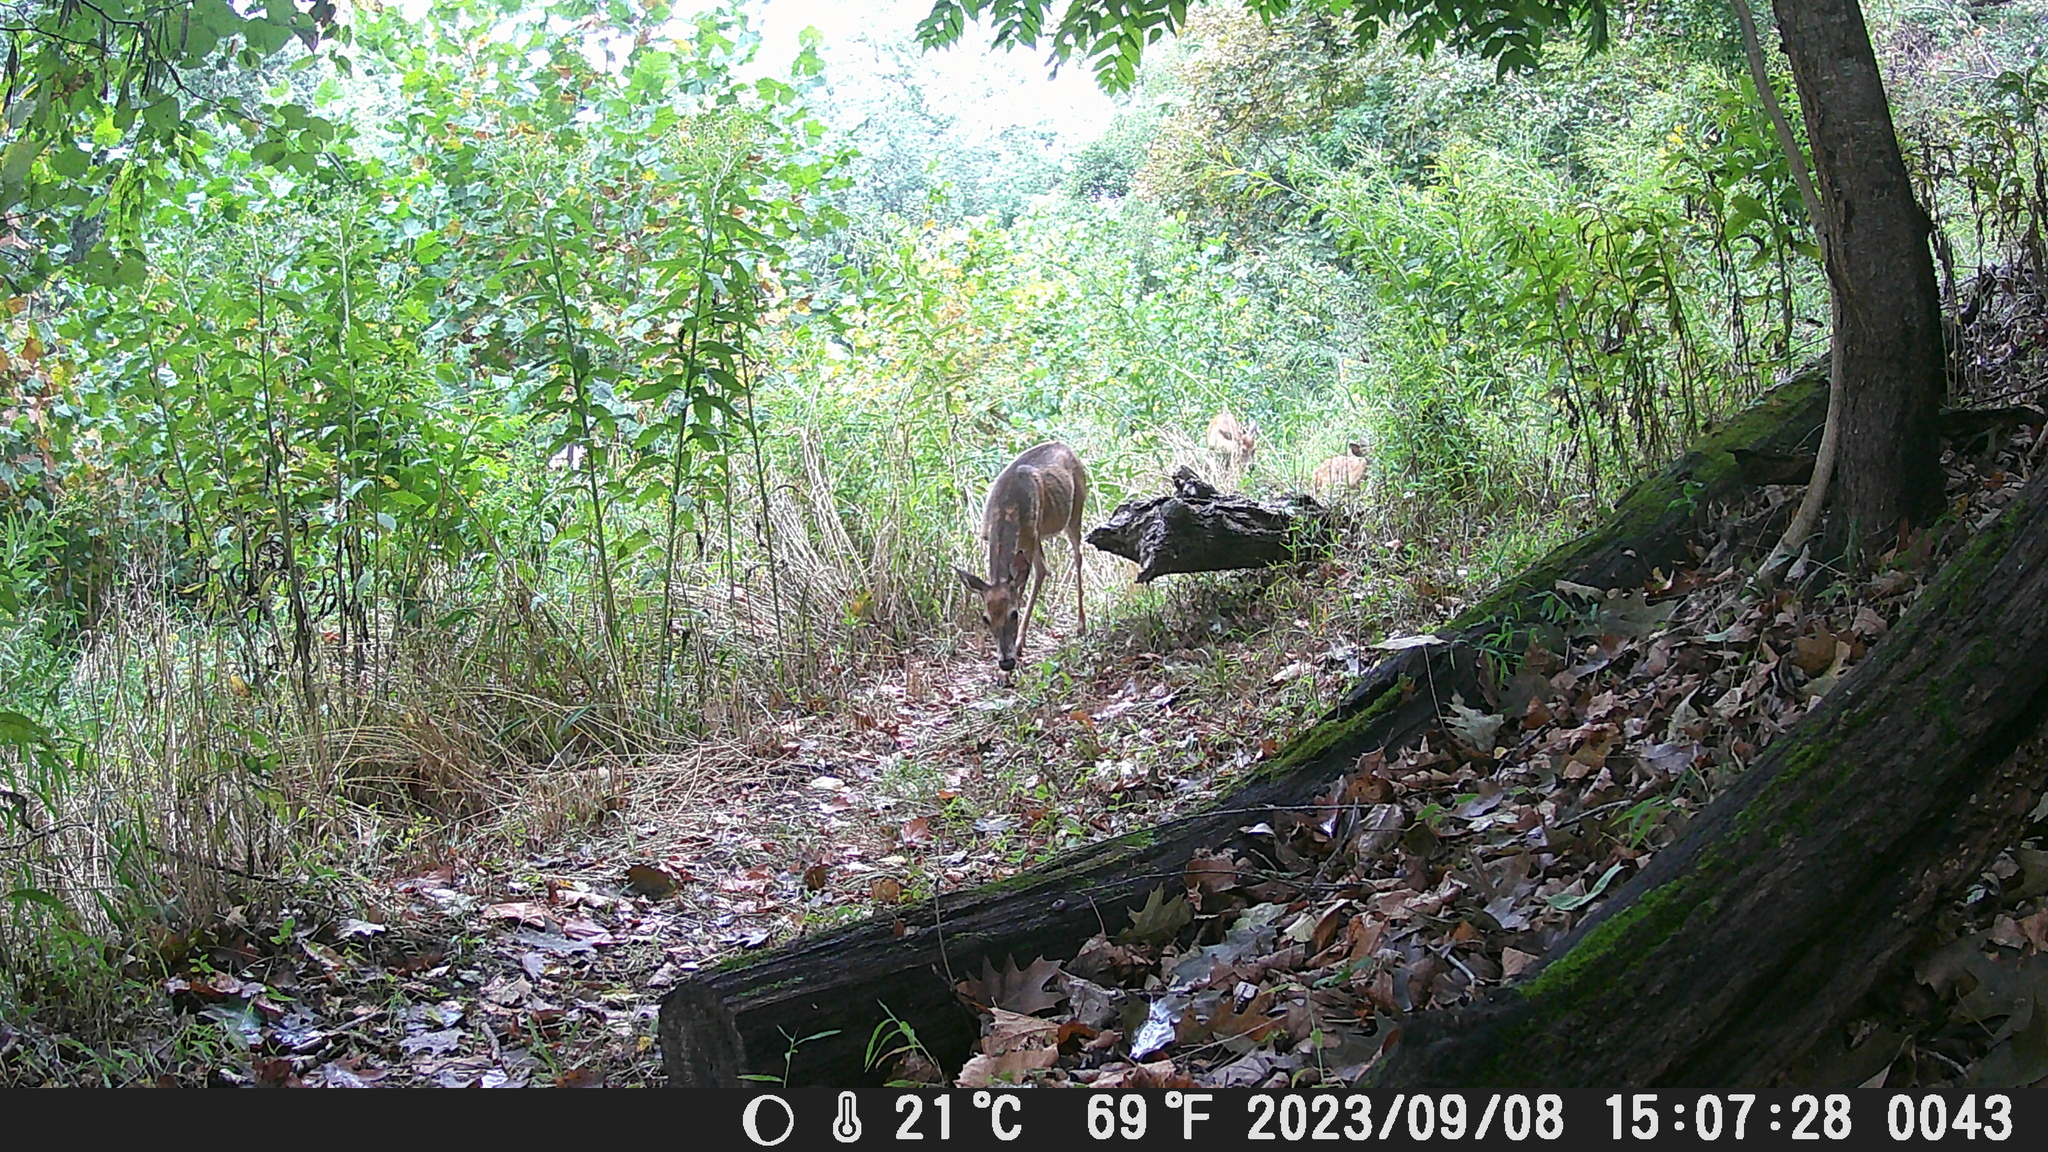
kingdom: Animalia
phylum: Chordata
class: Mammalia
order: Artiodactyla
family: Cervidae
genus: Odocoileus
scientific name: Odocoileus virginianus
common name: White-tailed deer
